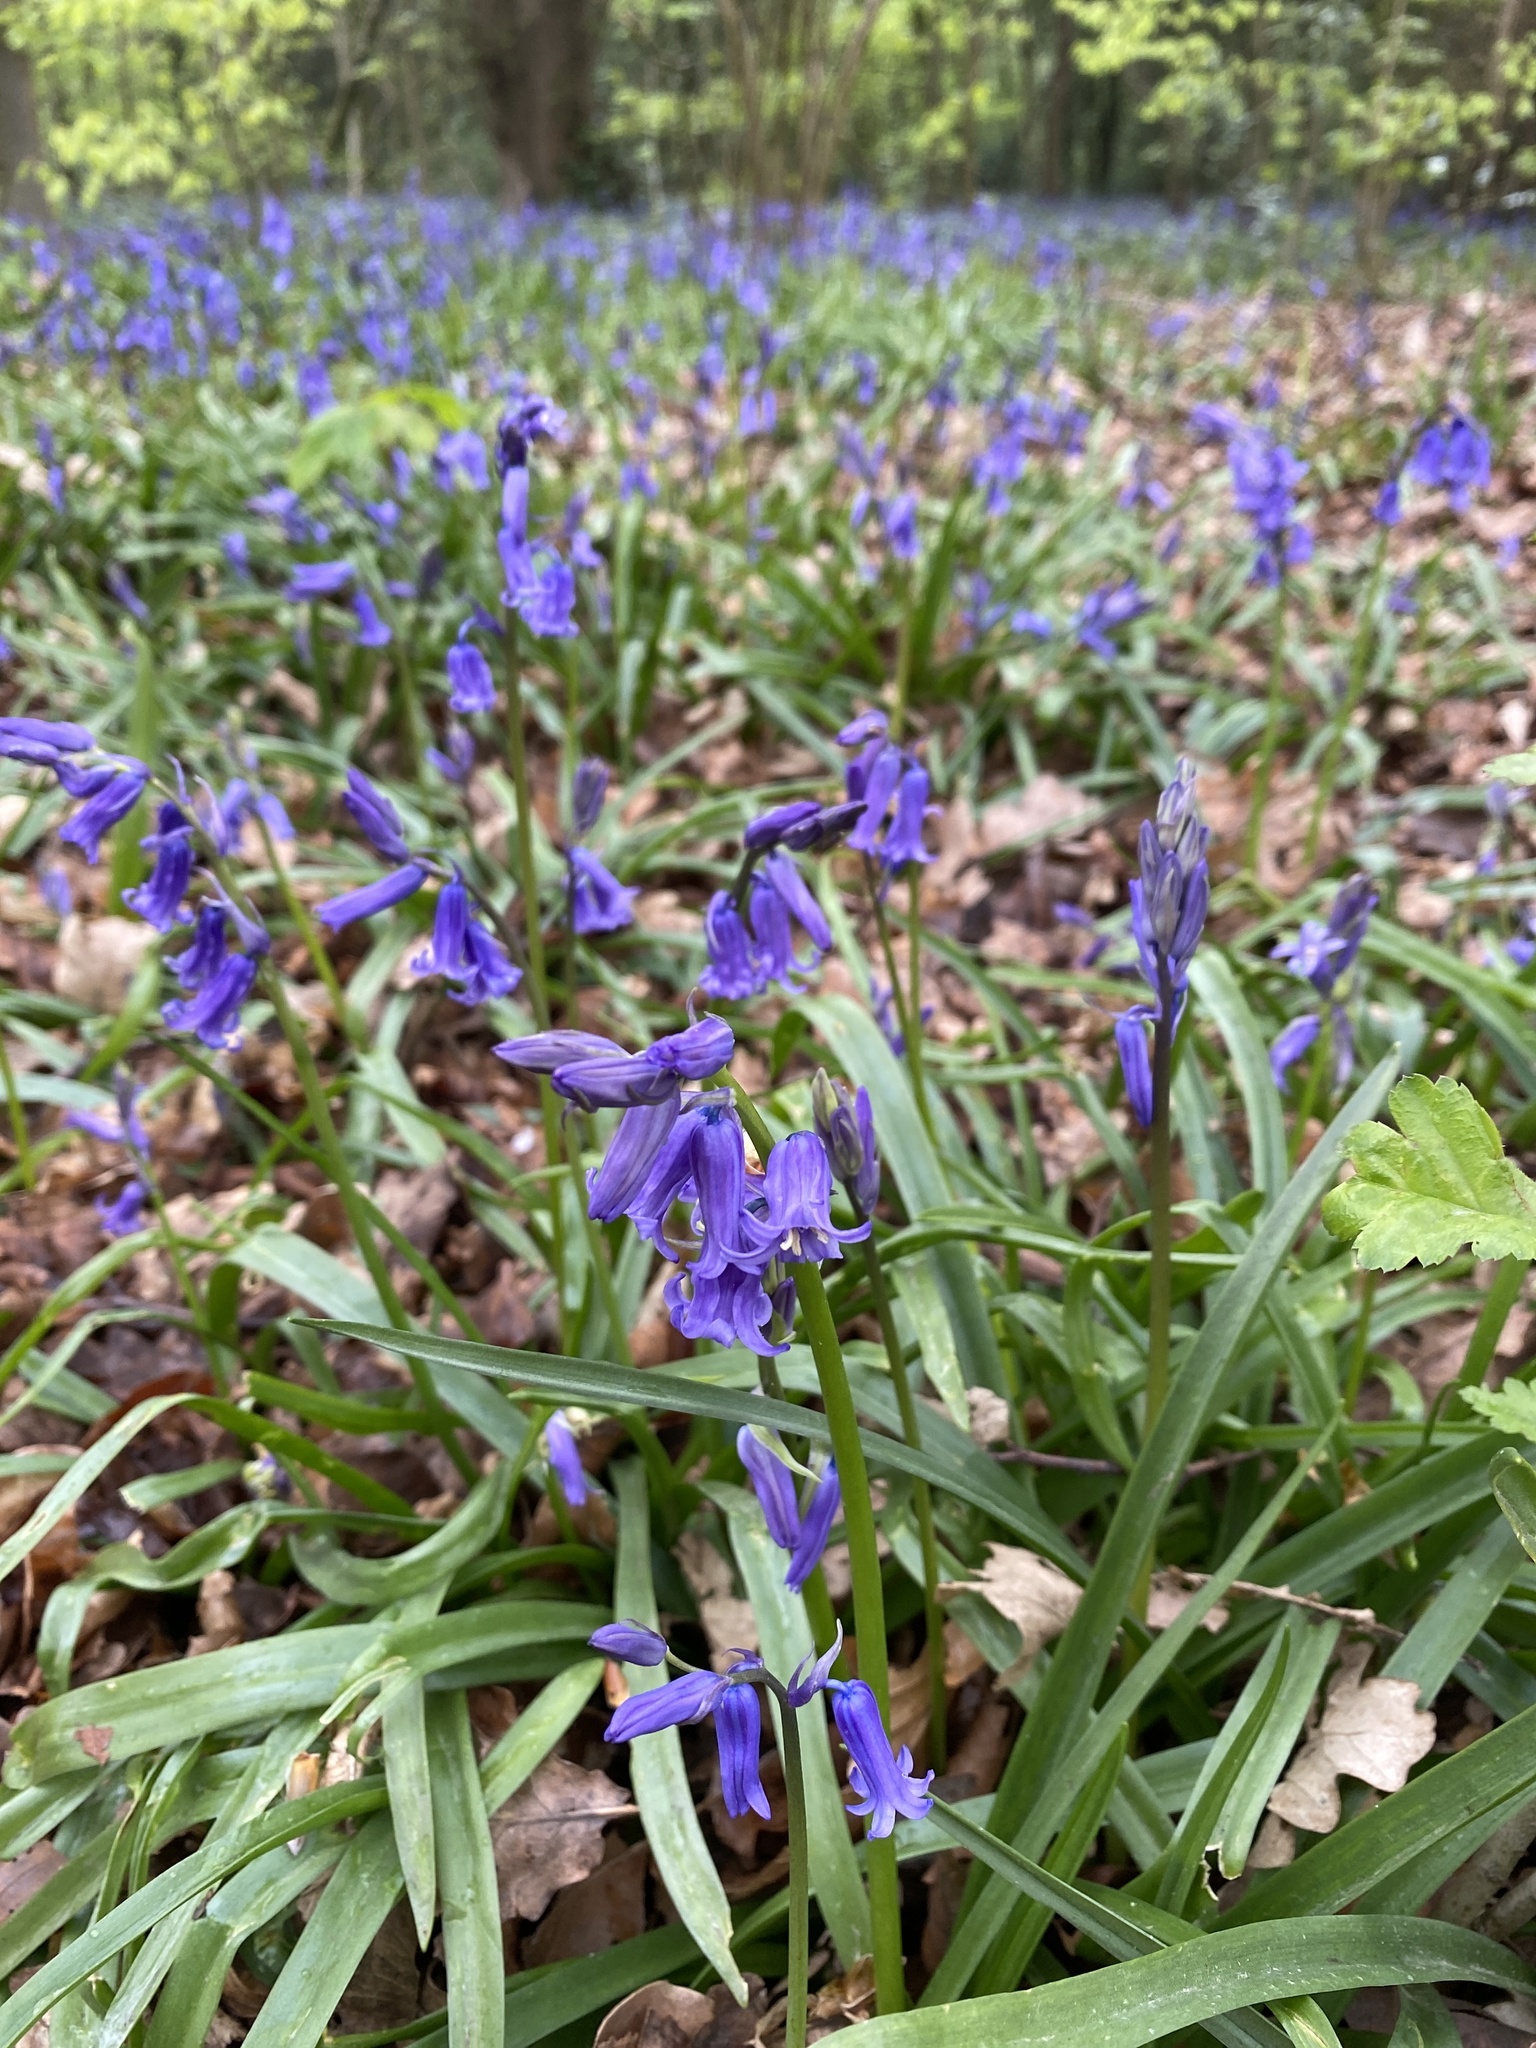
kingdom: Plantae
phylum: Tracheophyta
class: Liliopsida
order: Asparagales
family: Asparagaceae
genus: Hyacinthoides
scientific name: Hyacinthoides non-scripta
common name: Bluebell
